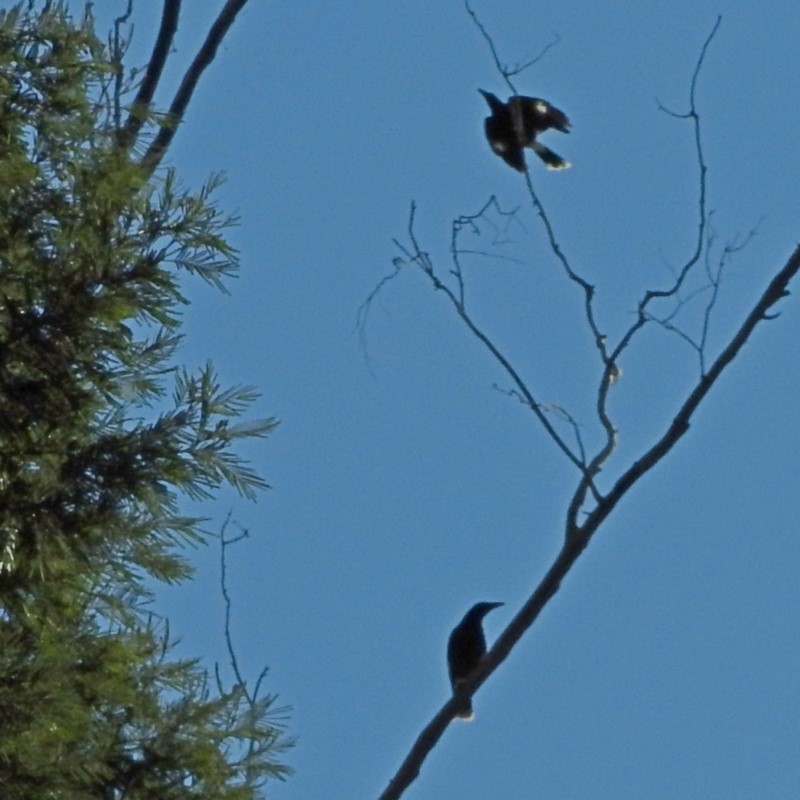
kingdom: Animalia
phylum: Chordata
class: Aves
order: Passeriformes
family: Cracticidae
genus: Strepera
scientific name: Strepera graculina
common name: Pied currawong
